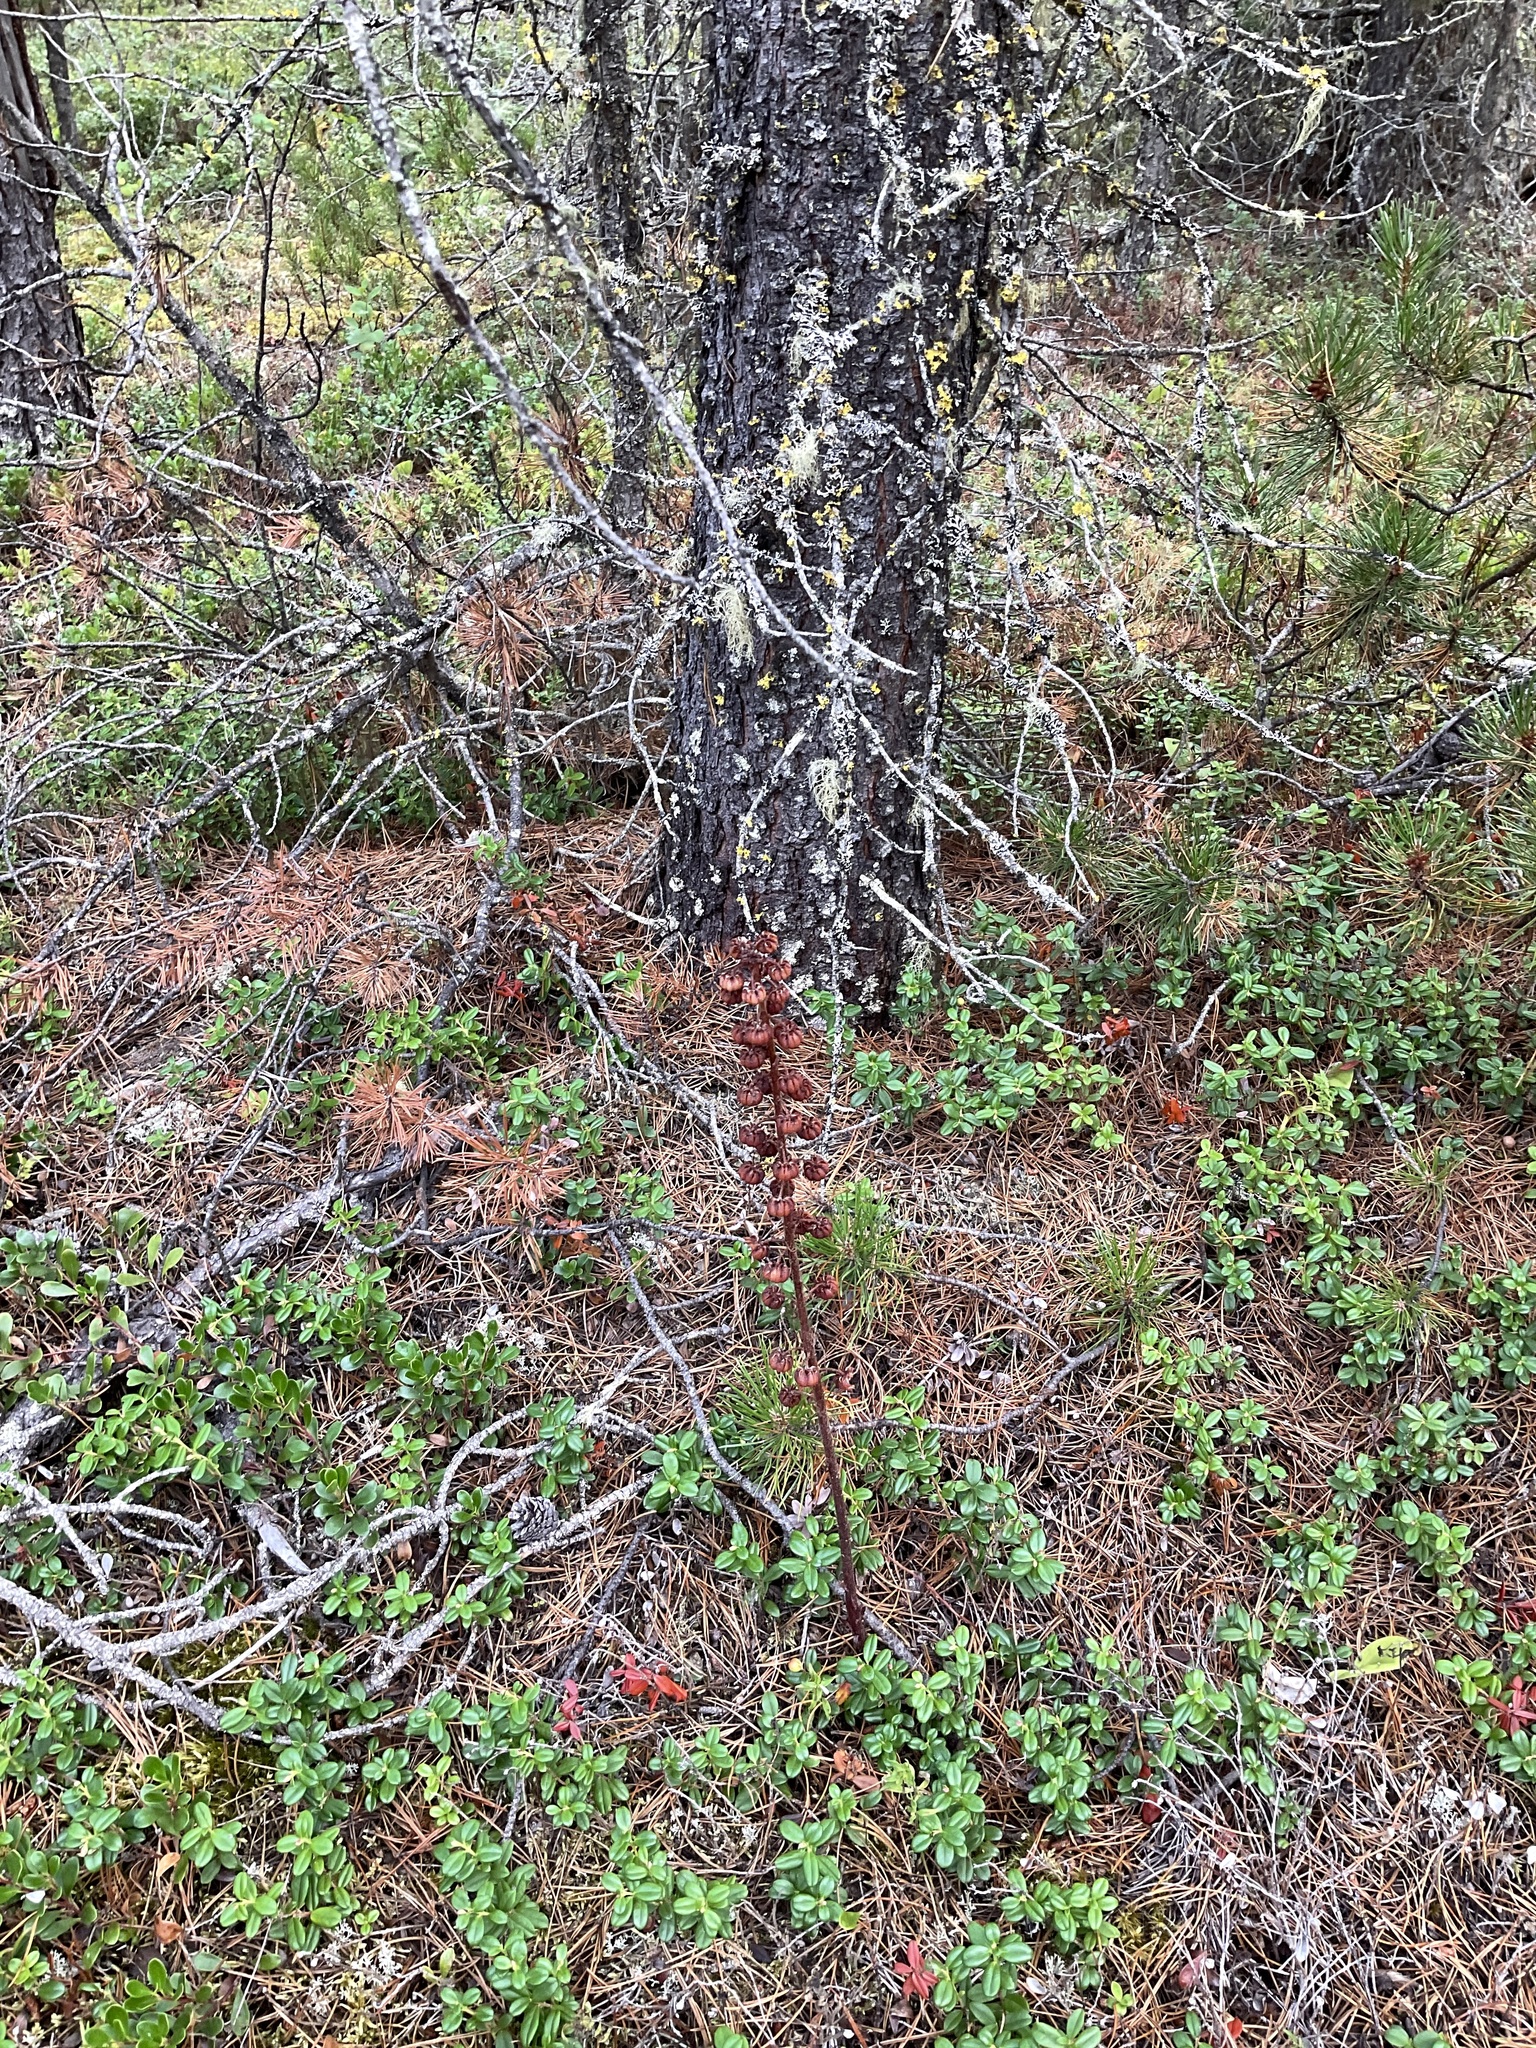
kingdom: Plantae
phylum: Tracheophyta
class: Magnoliopsida
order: Ericales
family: Ericaceae
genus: Pterospora
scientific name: Pterospora andromedea
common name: Giant bird's-nest
